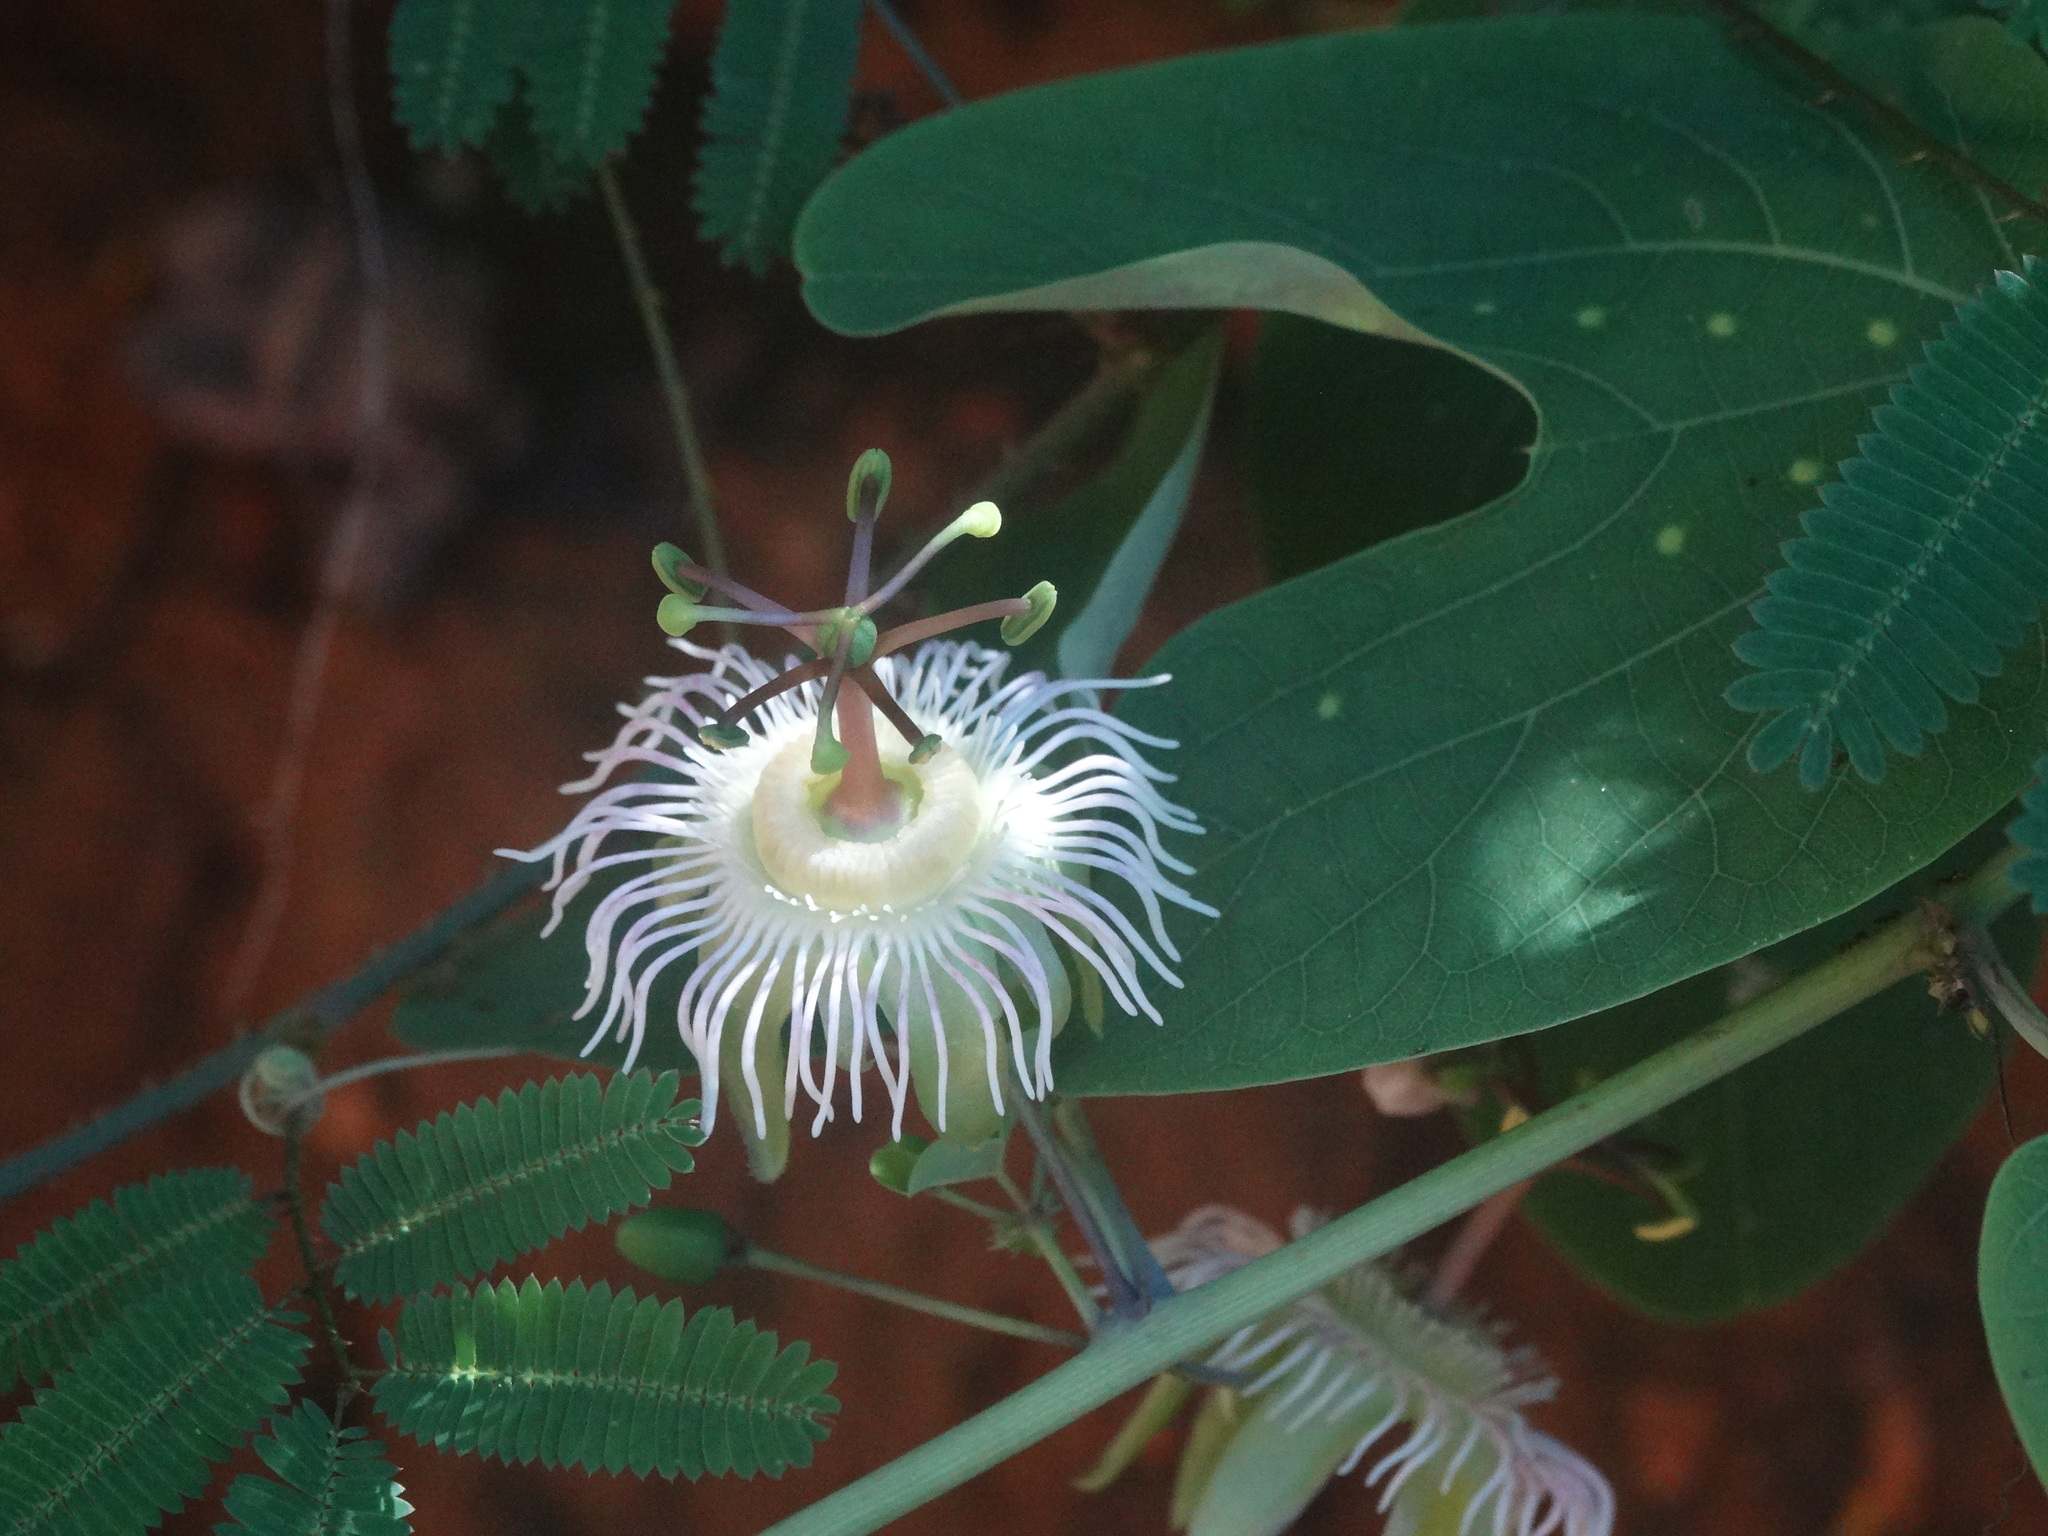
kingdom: Plantae
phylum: Tracheophyta
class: Magnoliopsida
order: Malpighiales
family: Passifloraceae
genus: Passiflora
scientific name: Passiflora mexicana
